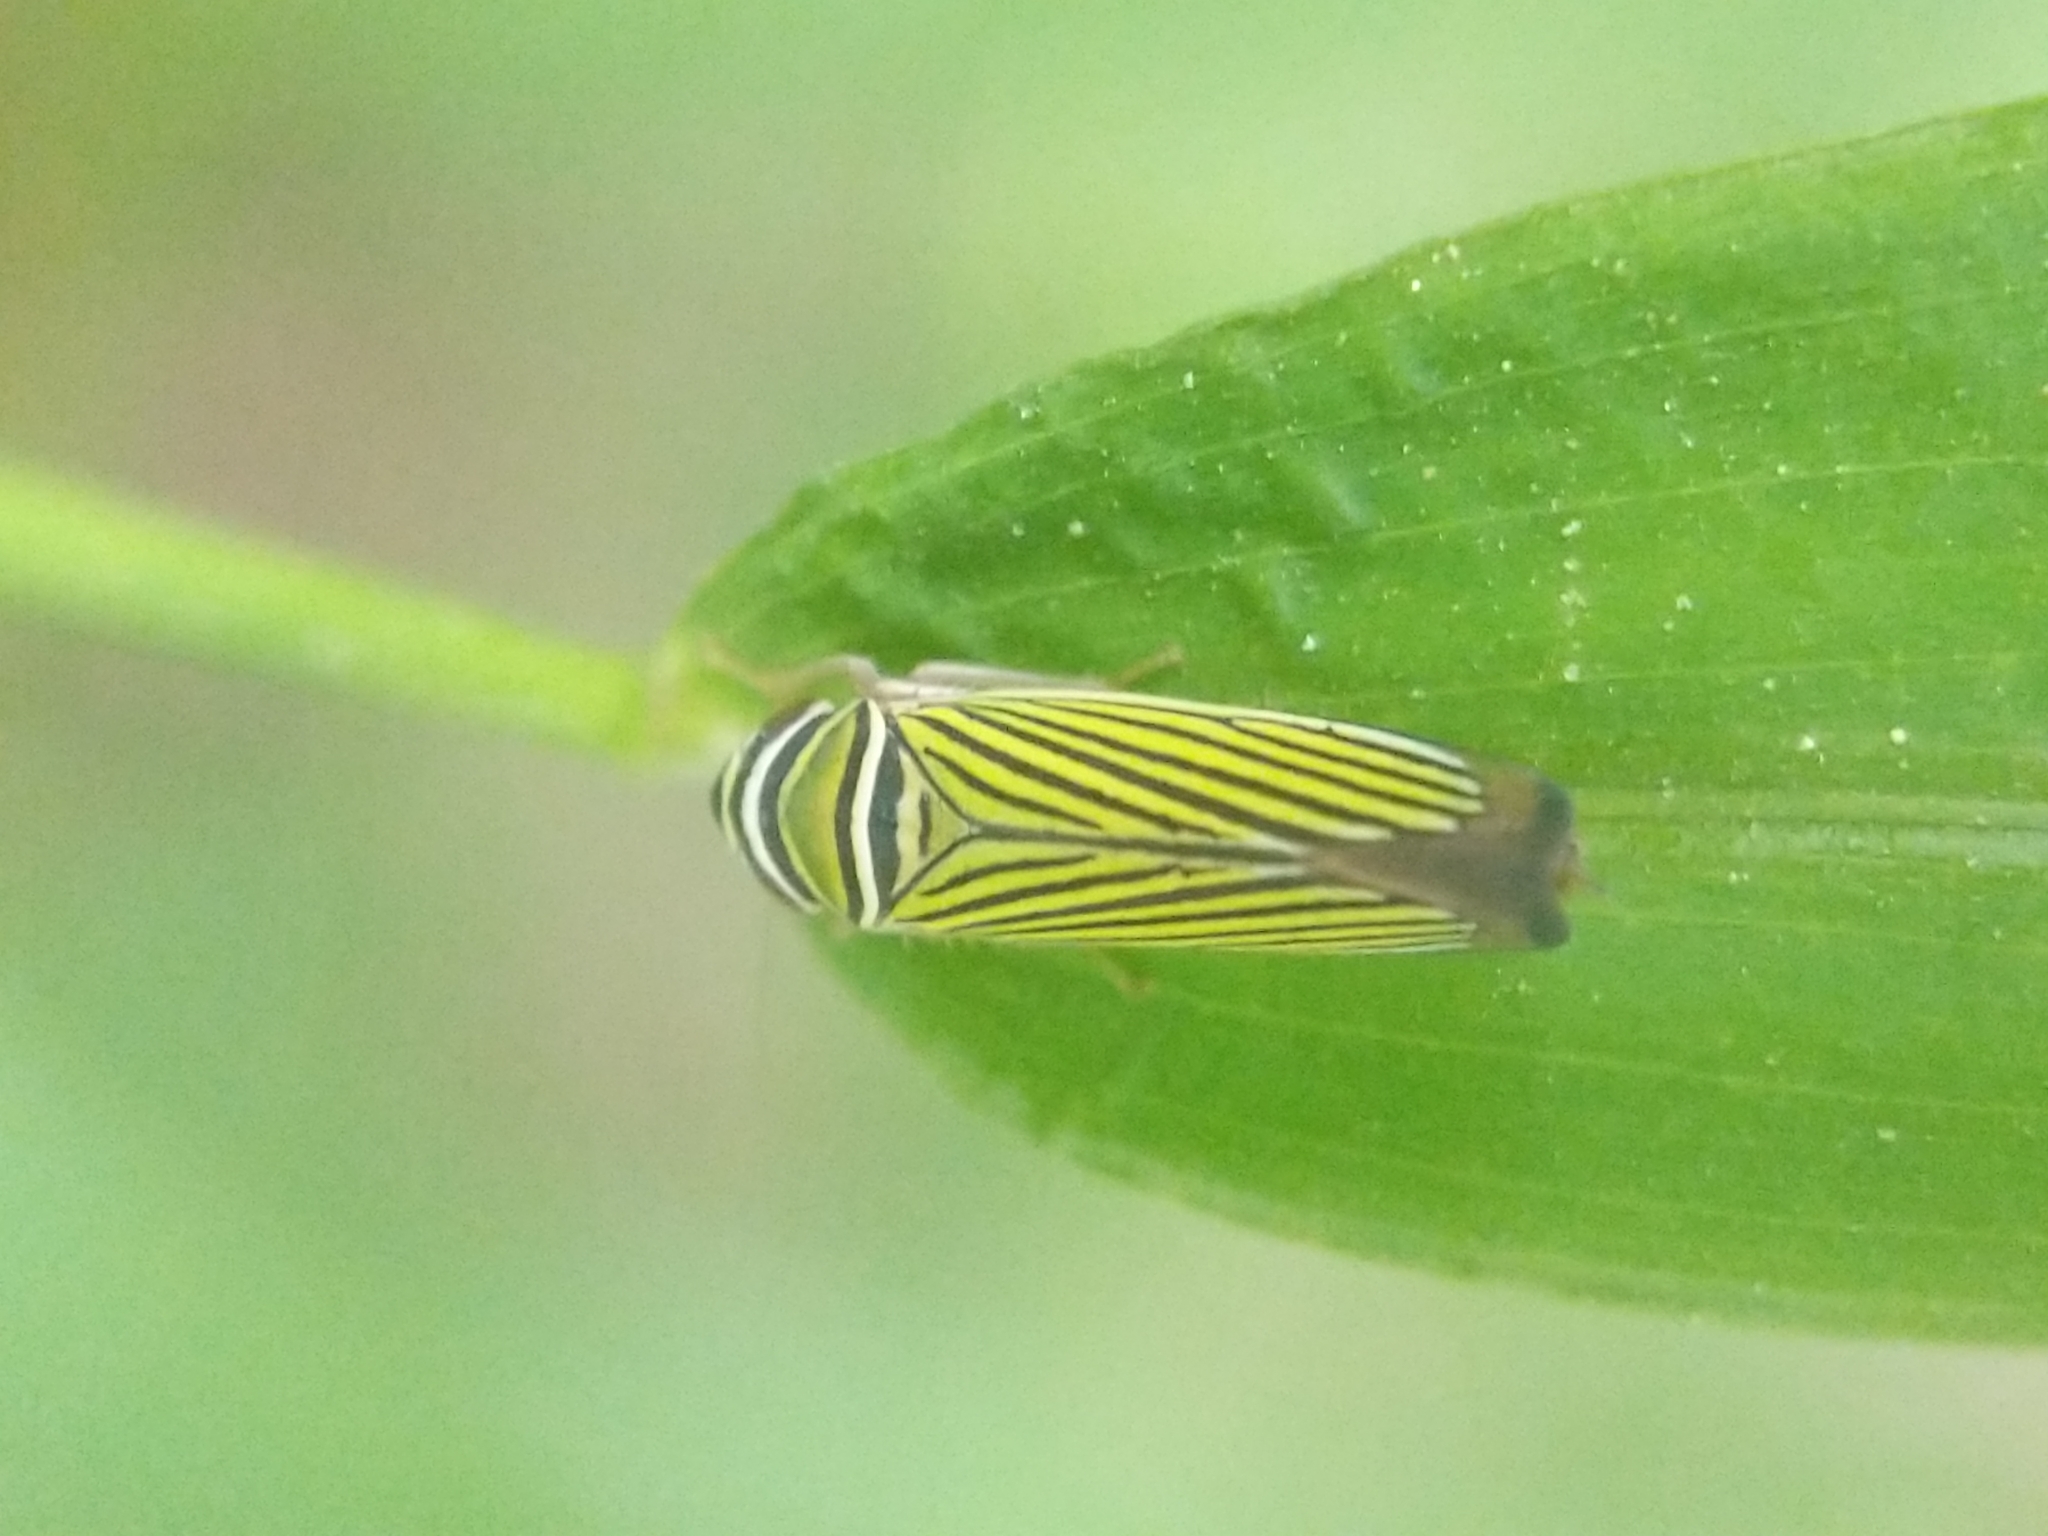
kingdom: Animalia
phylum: Arthropoda
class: Insecta
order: Hemiptera
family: Cicadellidae
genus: Tylozygus
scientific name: Tylozygus bifidus
